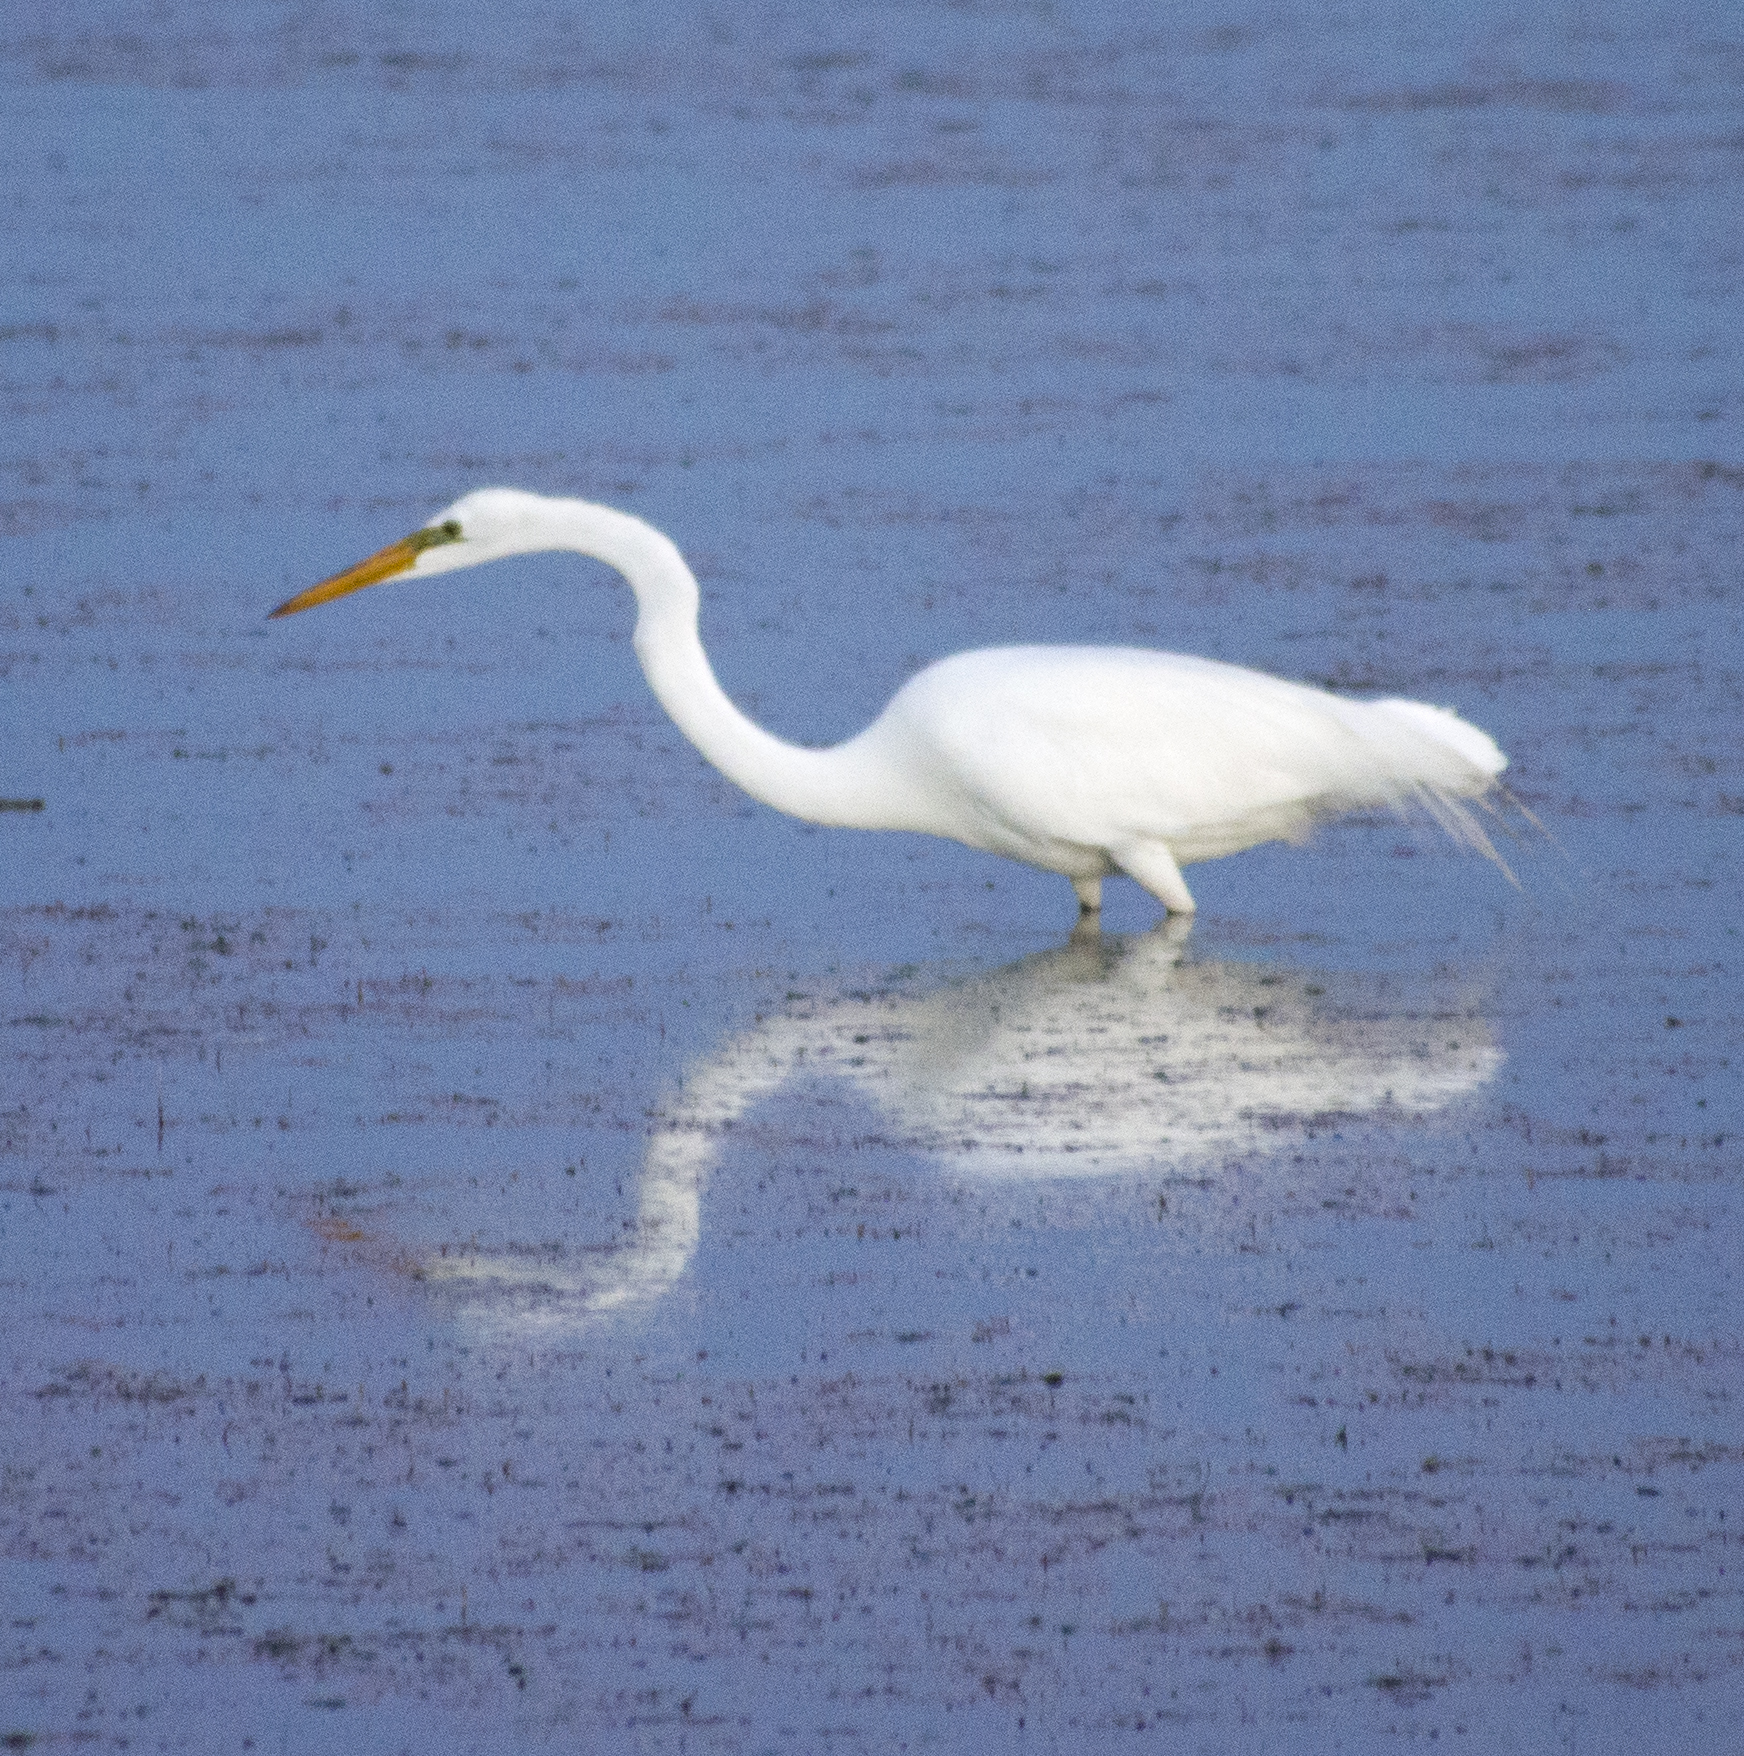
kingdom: Animalia
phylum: Chordata
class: Aves
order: Pelecaniformes
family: Ardeidae
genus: Ardea
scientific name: Ardea alba
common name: Great egret
